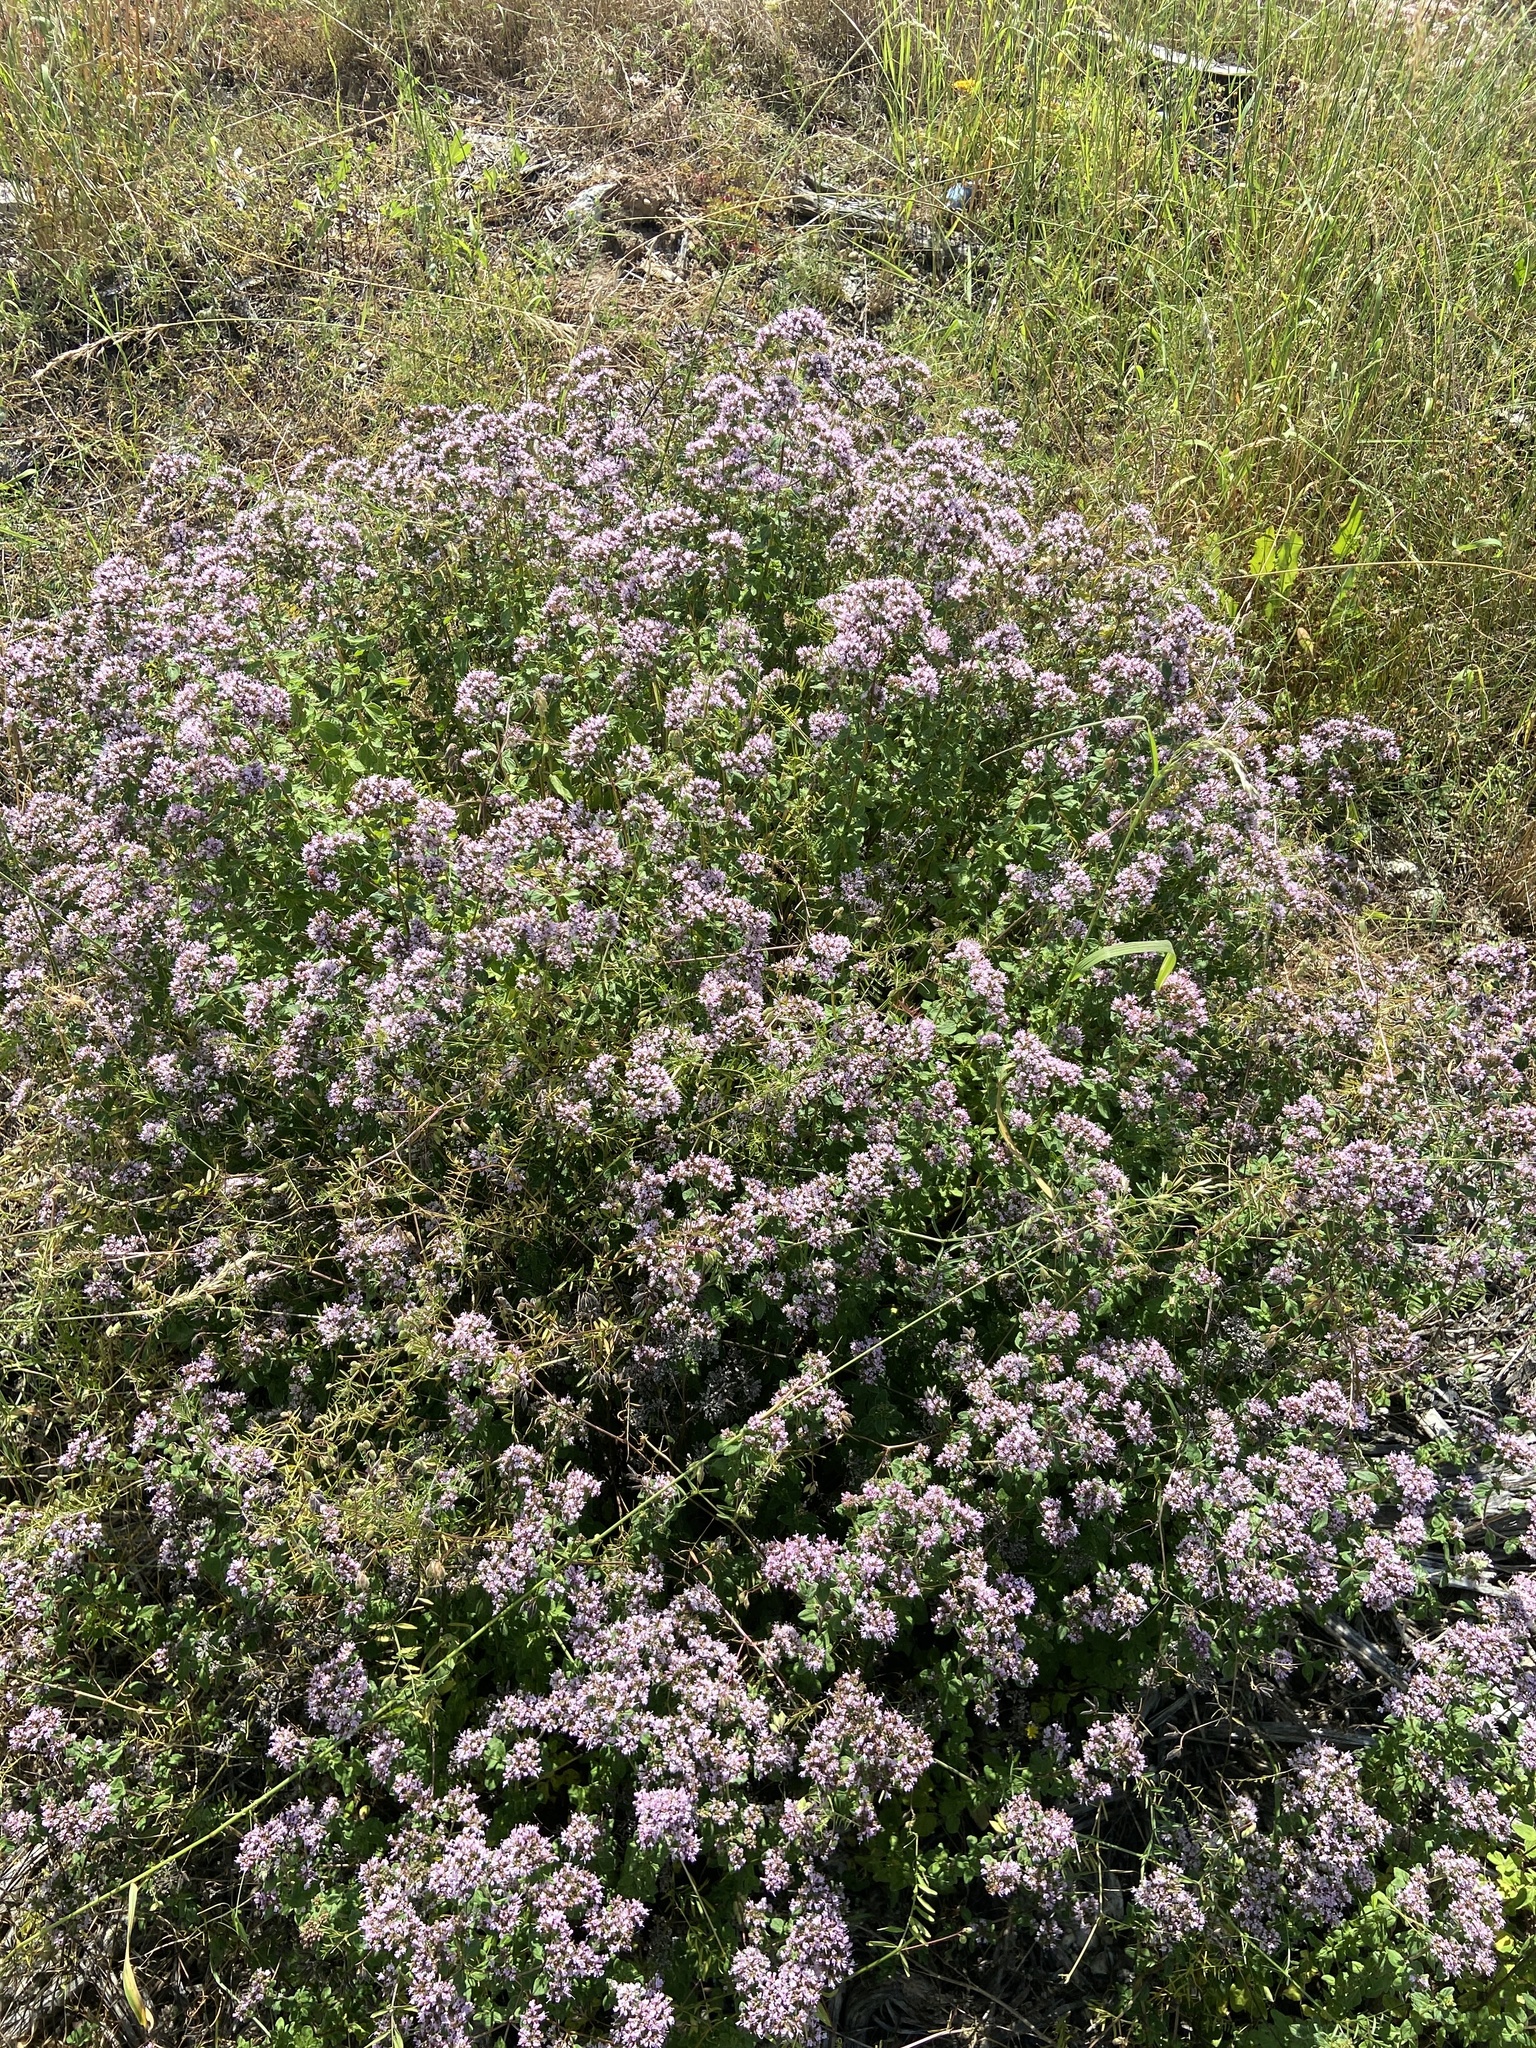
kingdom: Plantae
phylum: Tracheophyta
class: Magnoliopsida
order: Lamiales
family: Lamiaceae
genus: Origanum
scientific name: Origanum vulgare
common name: Wild marjoram
